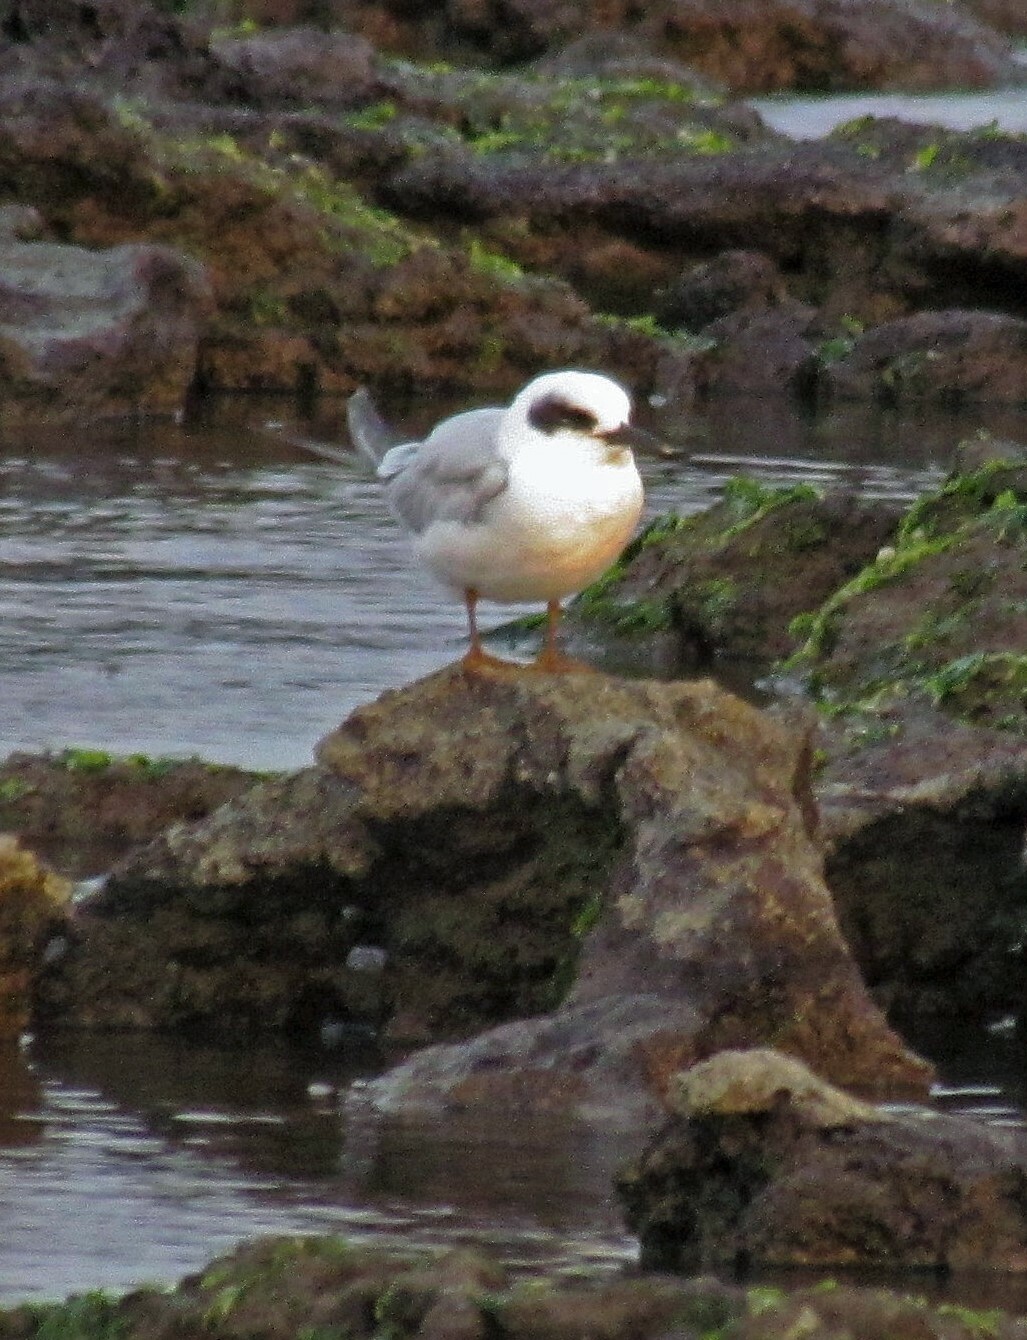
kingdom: Animalia
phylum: Chordata
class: Aves
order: Charadriiformes
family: Laridae
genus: Sterna
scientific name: Sterna trudeaui
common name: Snowy-crowned tern
